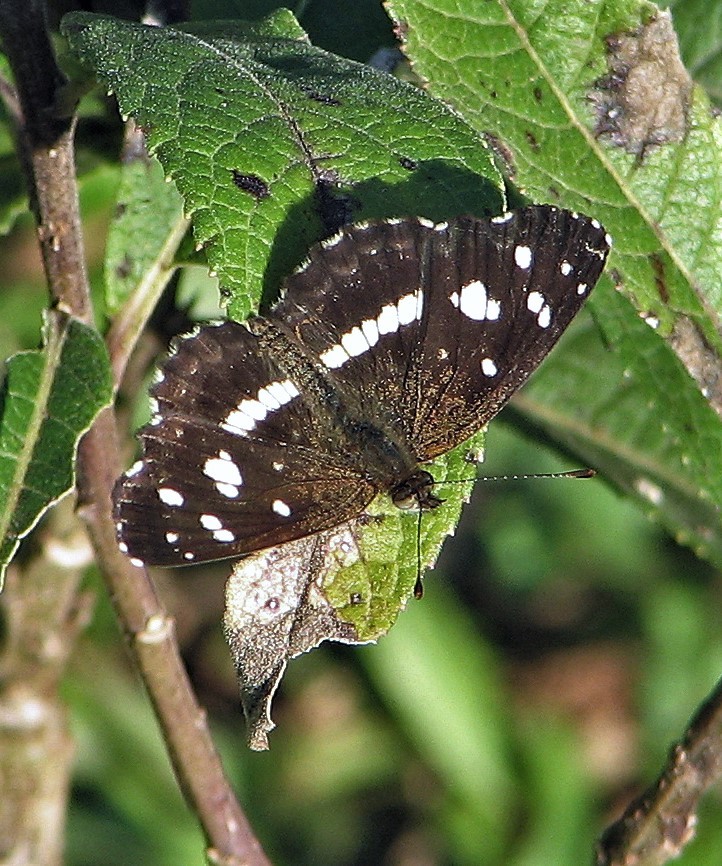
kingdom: Animalia
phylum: Arthropoda
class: Insecta
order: Lepidoptera
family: Nymphalidae
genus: Ortilia
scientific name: Ortilia ithra
